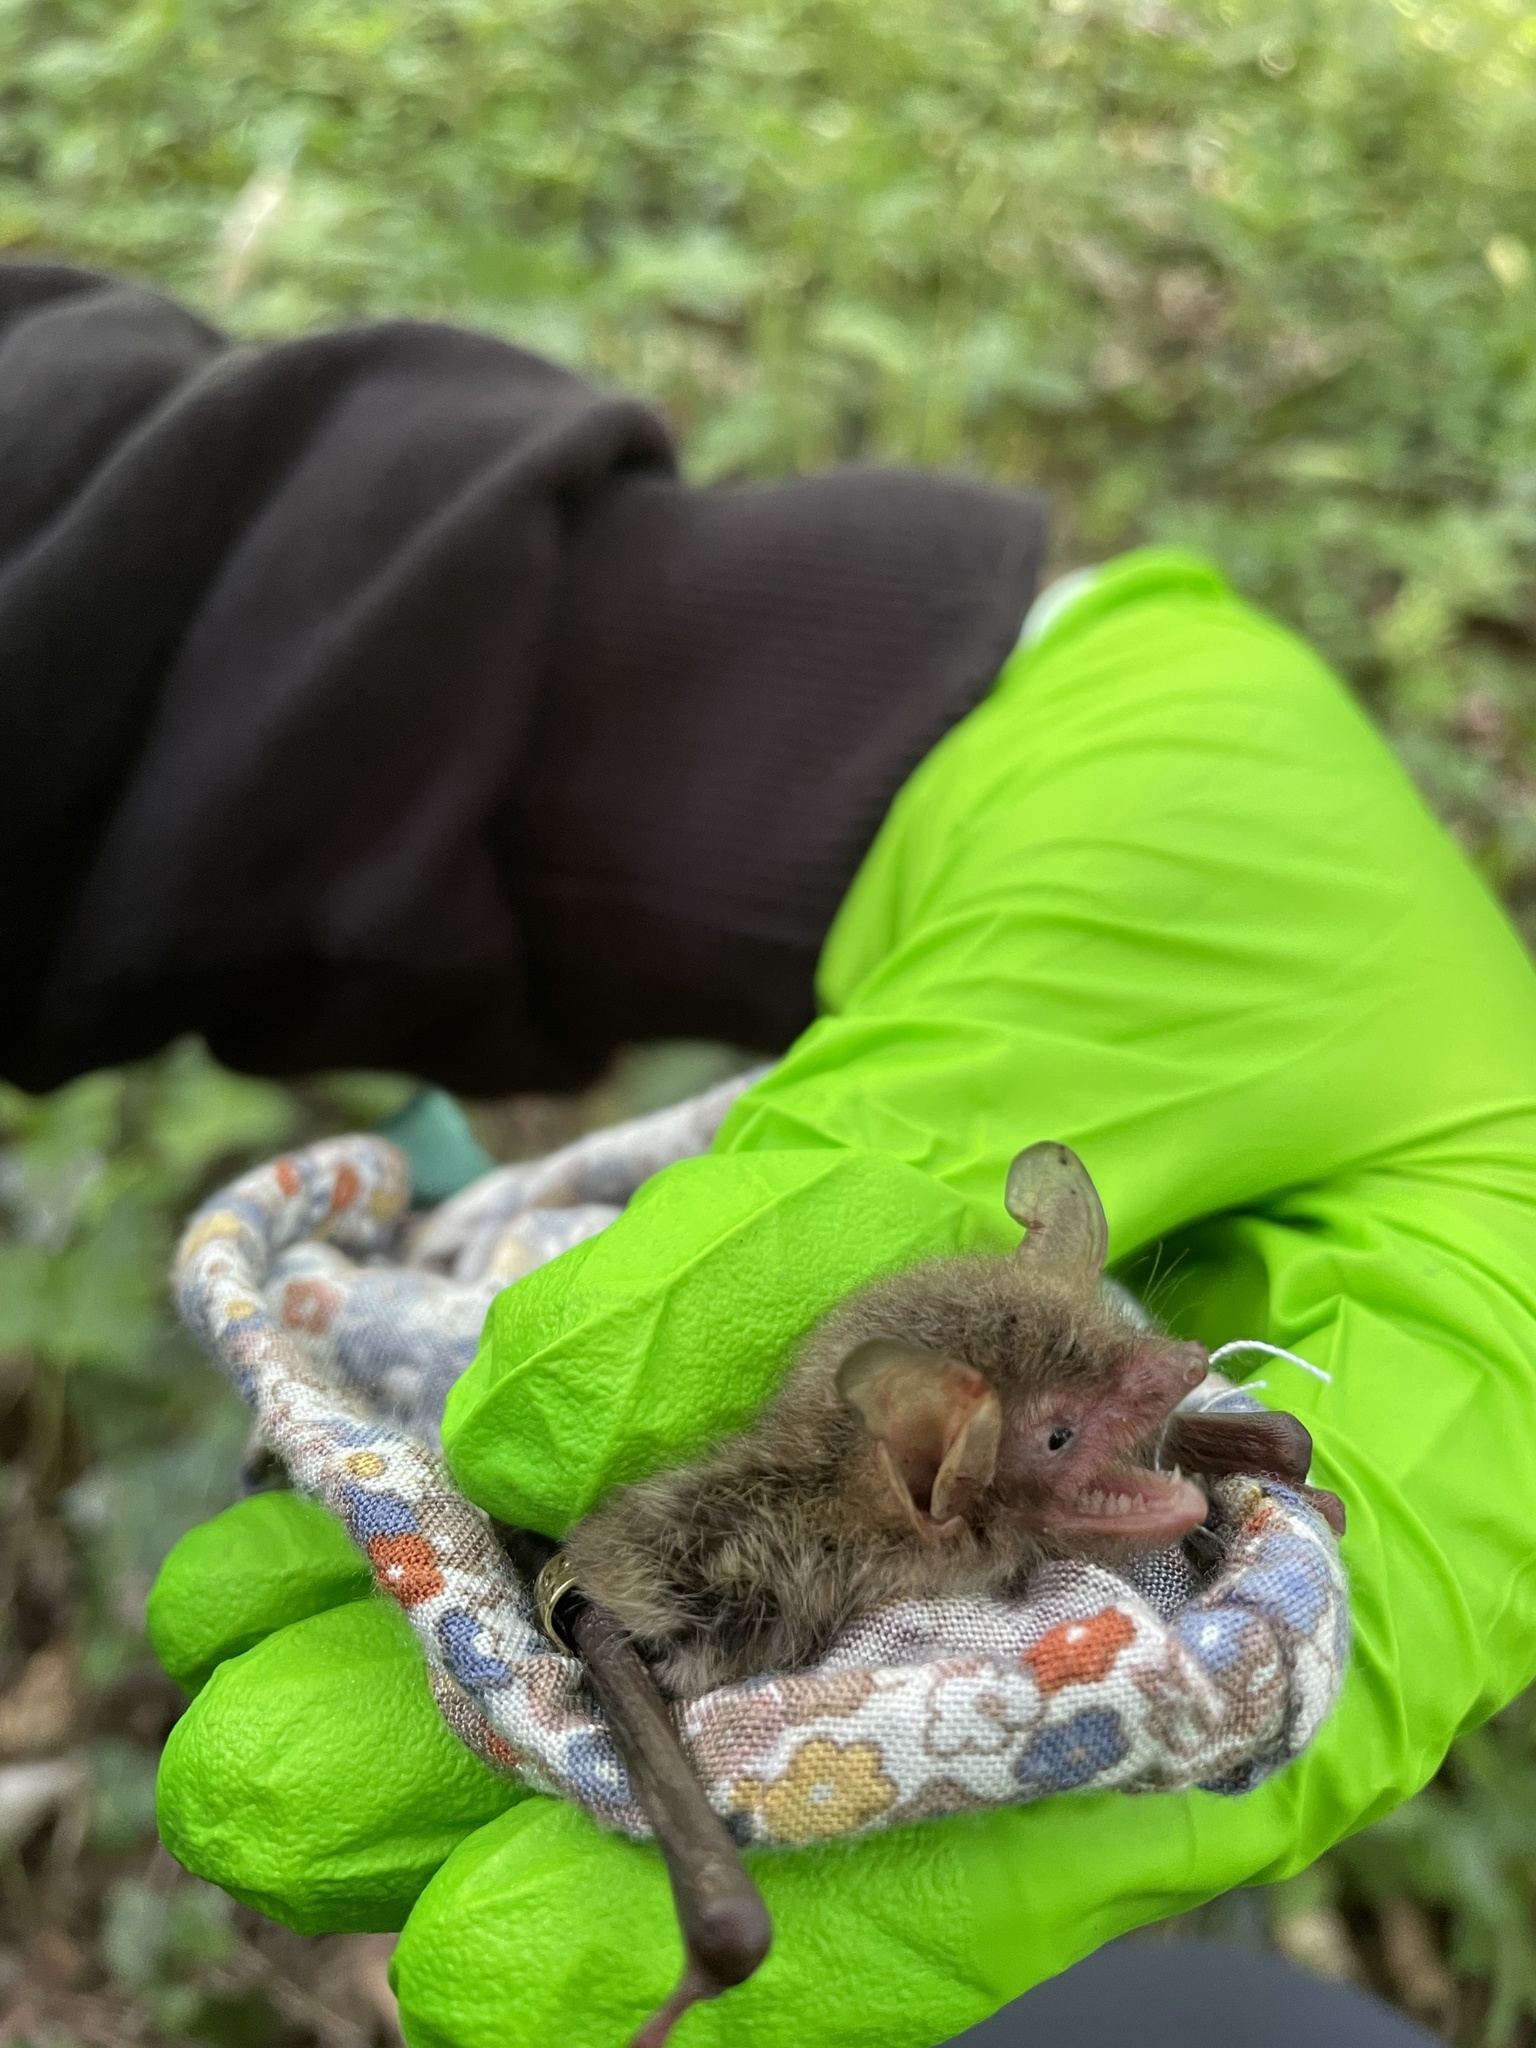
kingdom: Animalia
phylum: Chordata
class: Mammalia
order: Chiroptera
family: Vespertilionidae
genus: Myotis
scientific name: Myotis nattereri
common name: Natterer's bat
